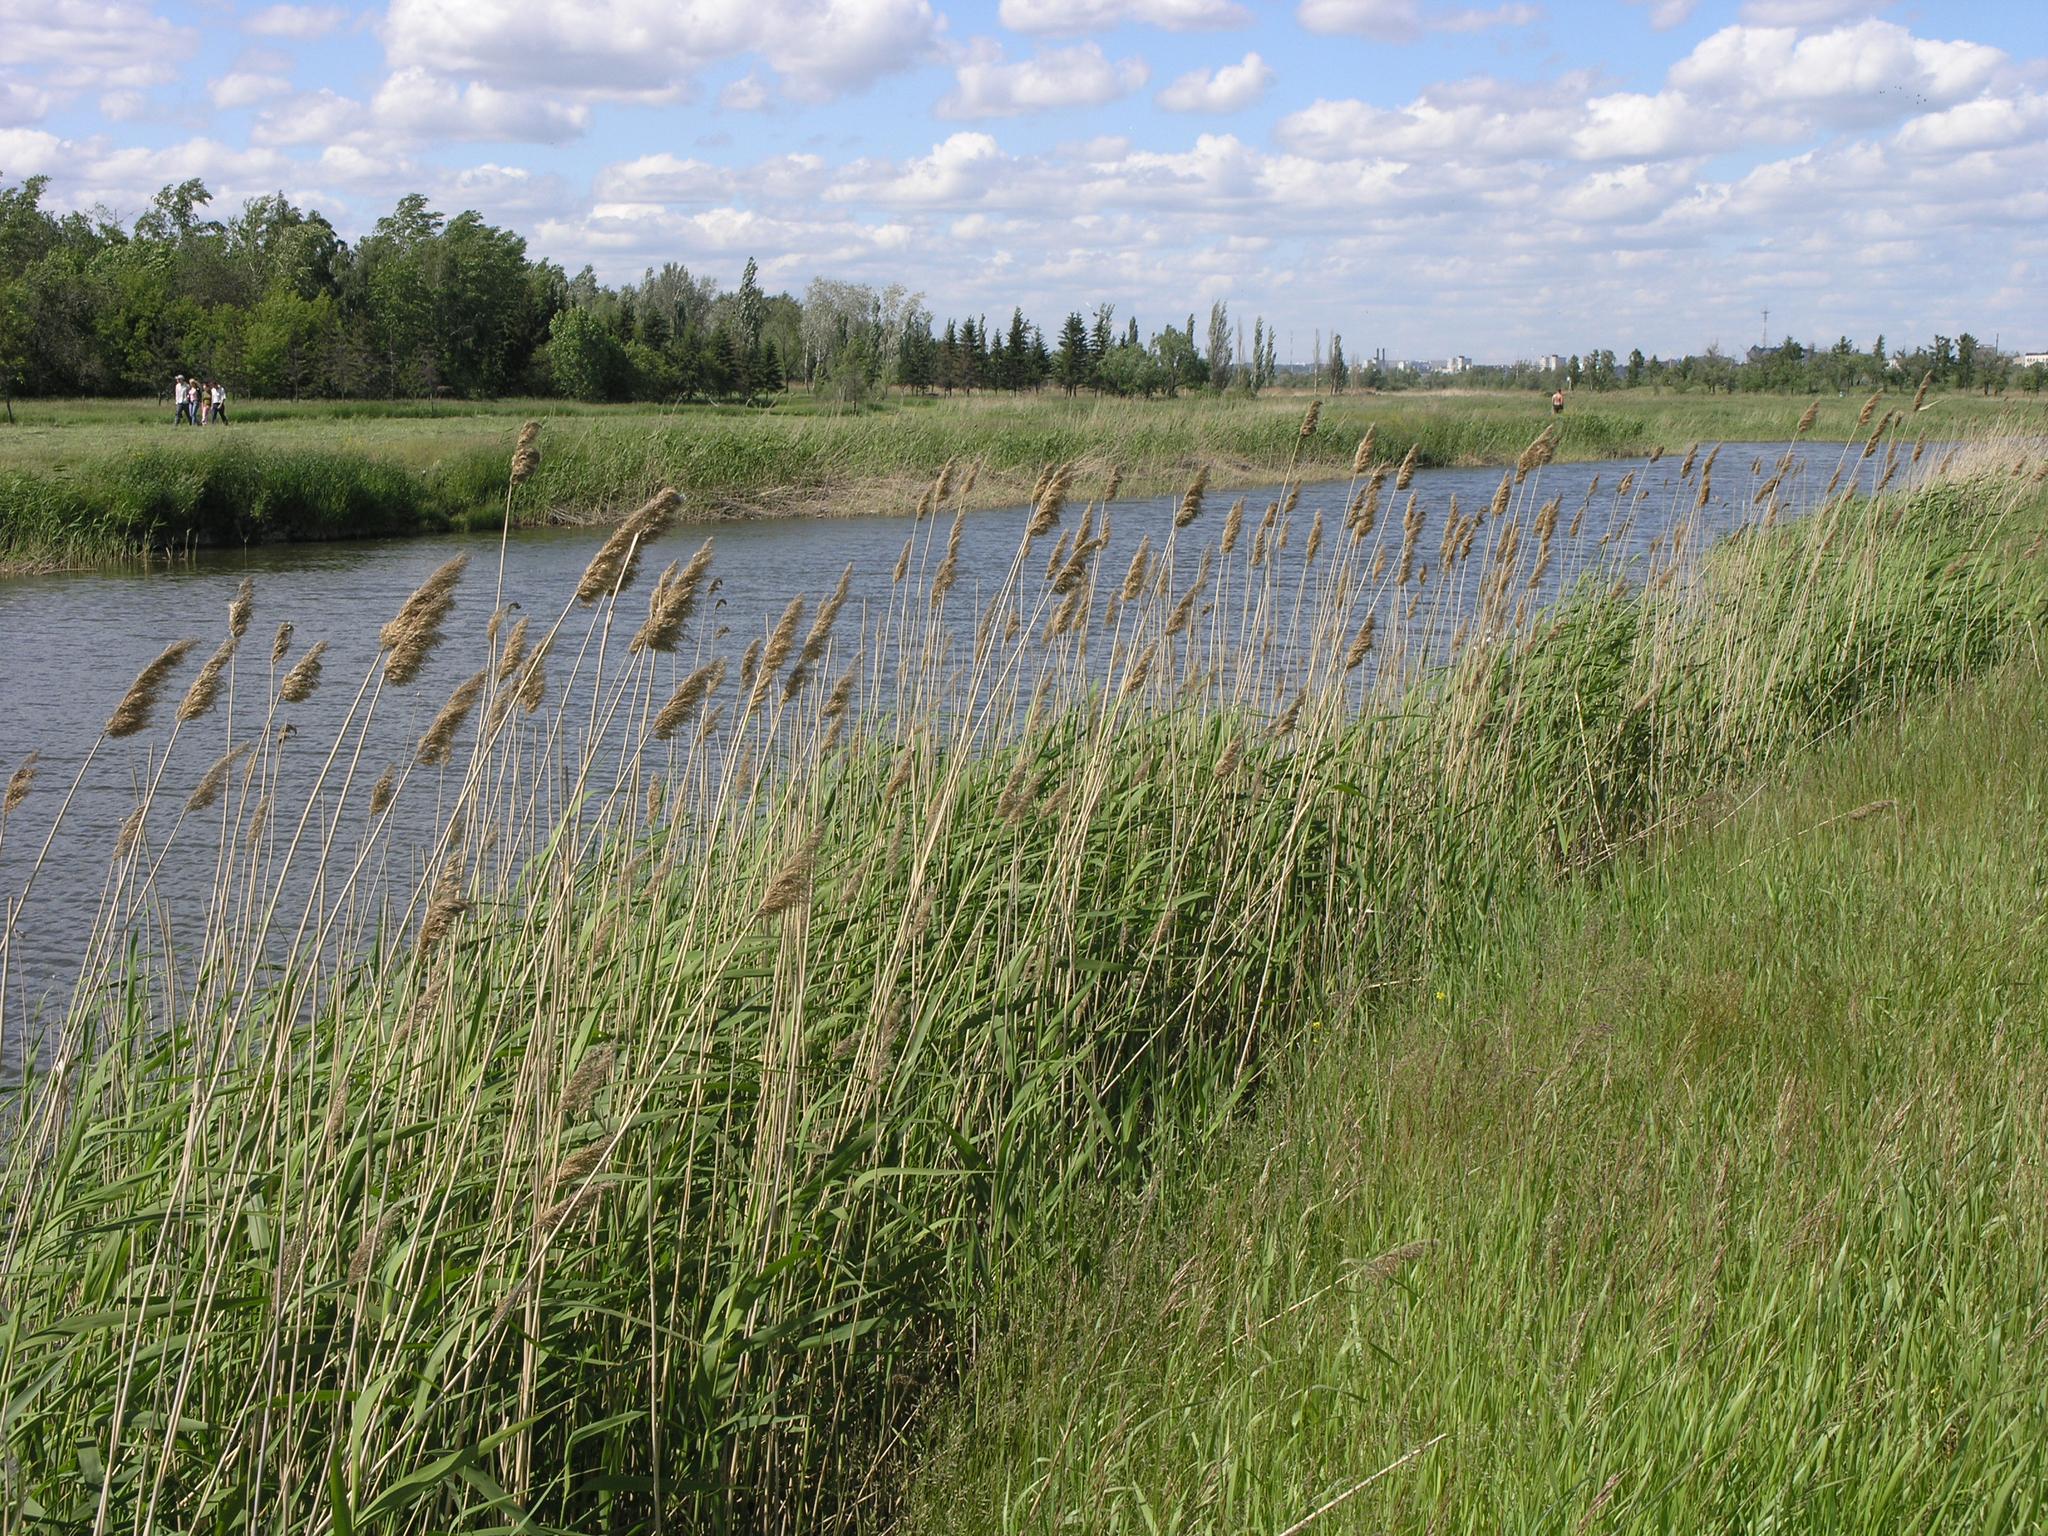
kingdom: Plantae
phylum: Tracheophyta
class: Liliopsida
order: Poales
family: Poaceae
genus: Phragmites
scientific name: Phragmites australis
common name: Common reed
